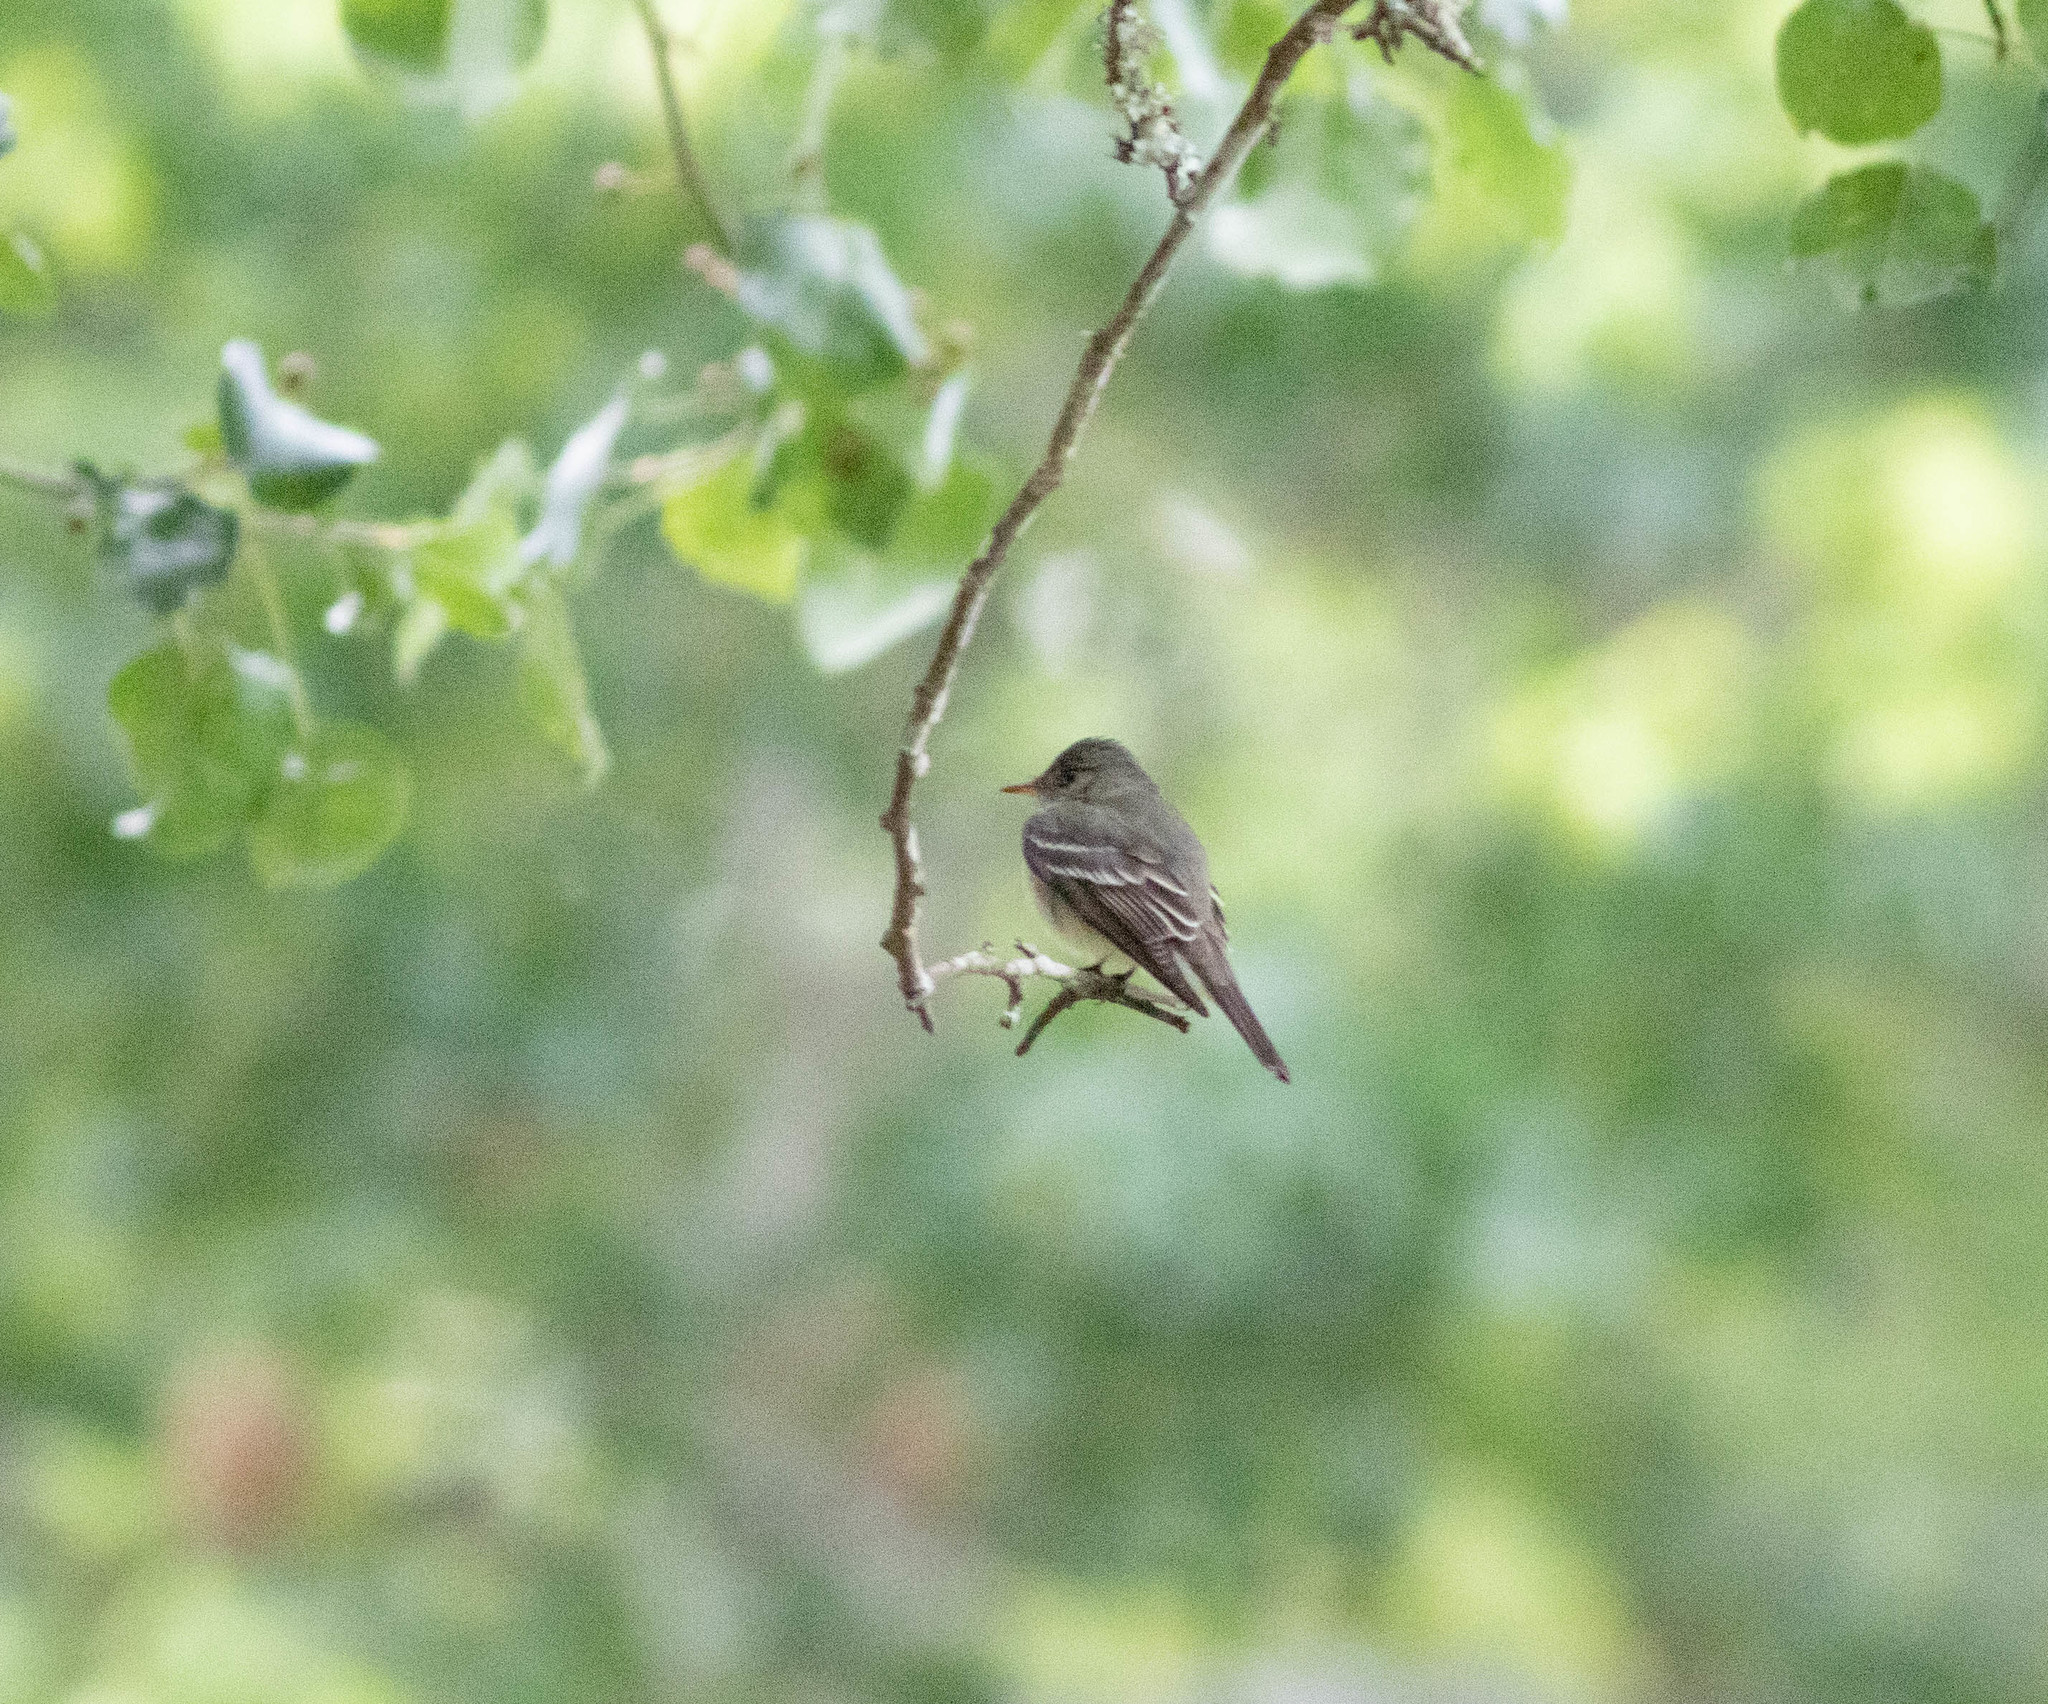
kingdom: Animalia
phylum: Chordata
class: Aves
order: Passeriformes
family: Tyrannidae
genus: Contopus
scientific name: Contopus virens
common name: Eastern wood-pewee
